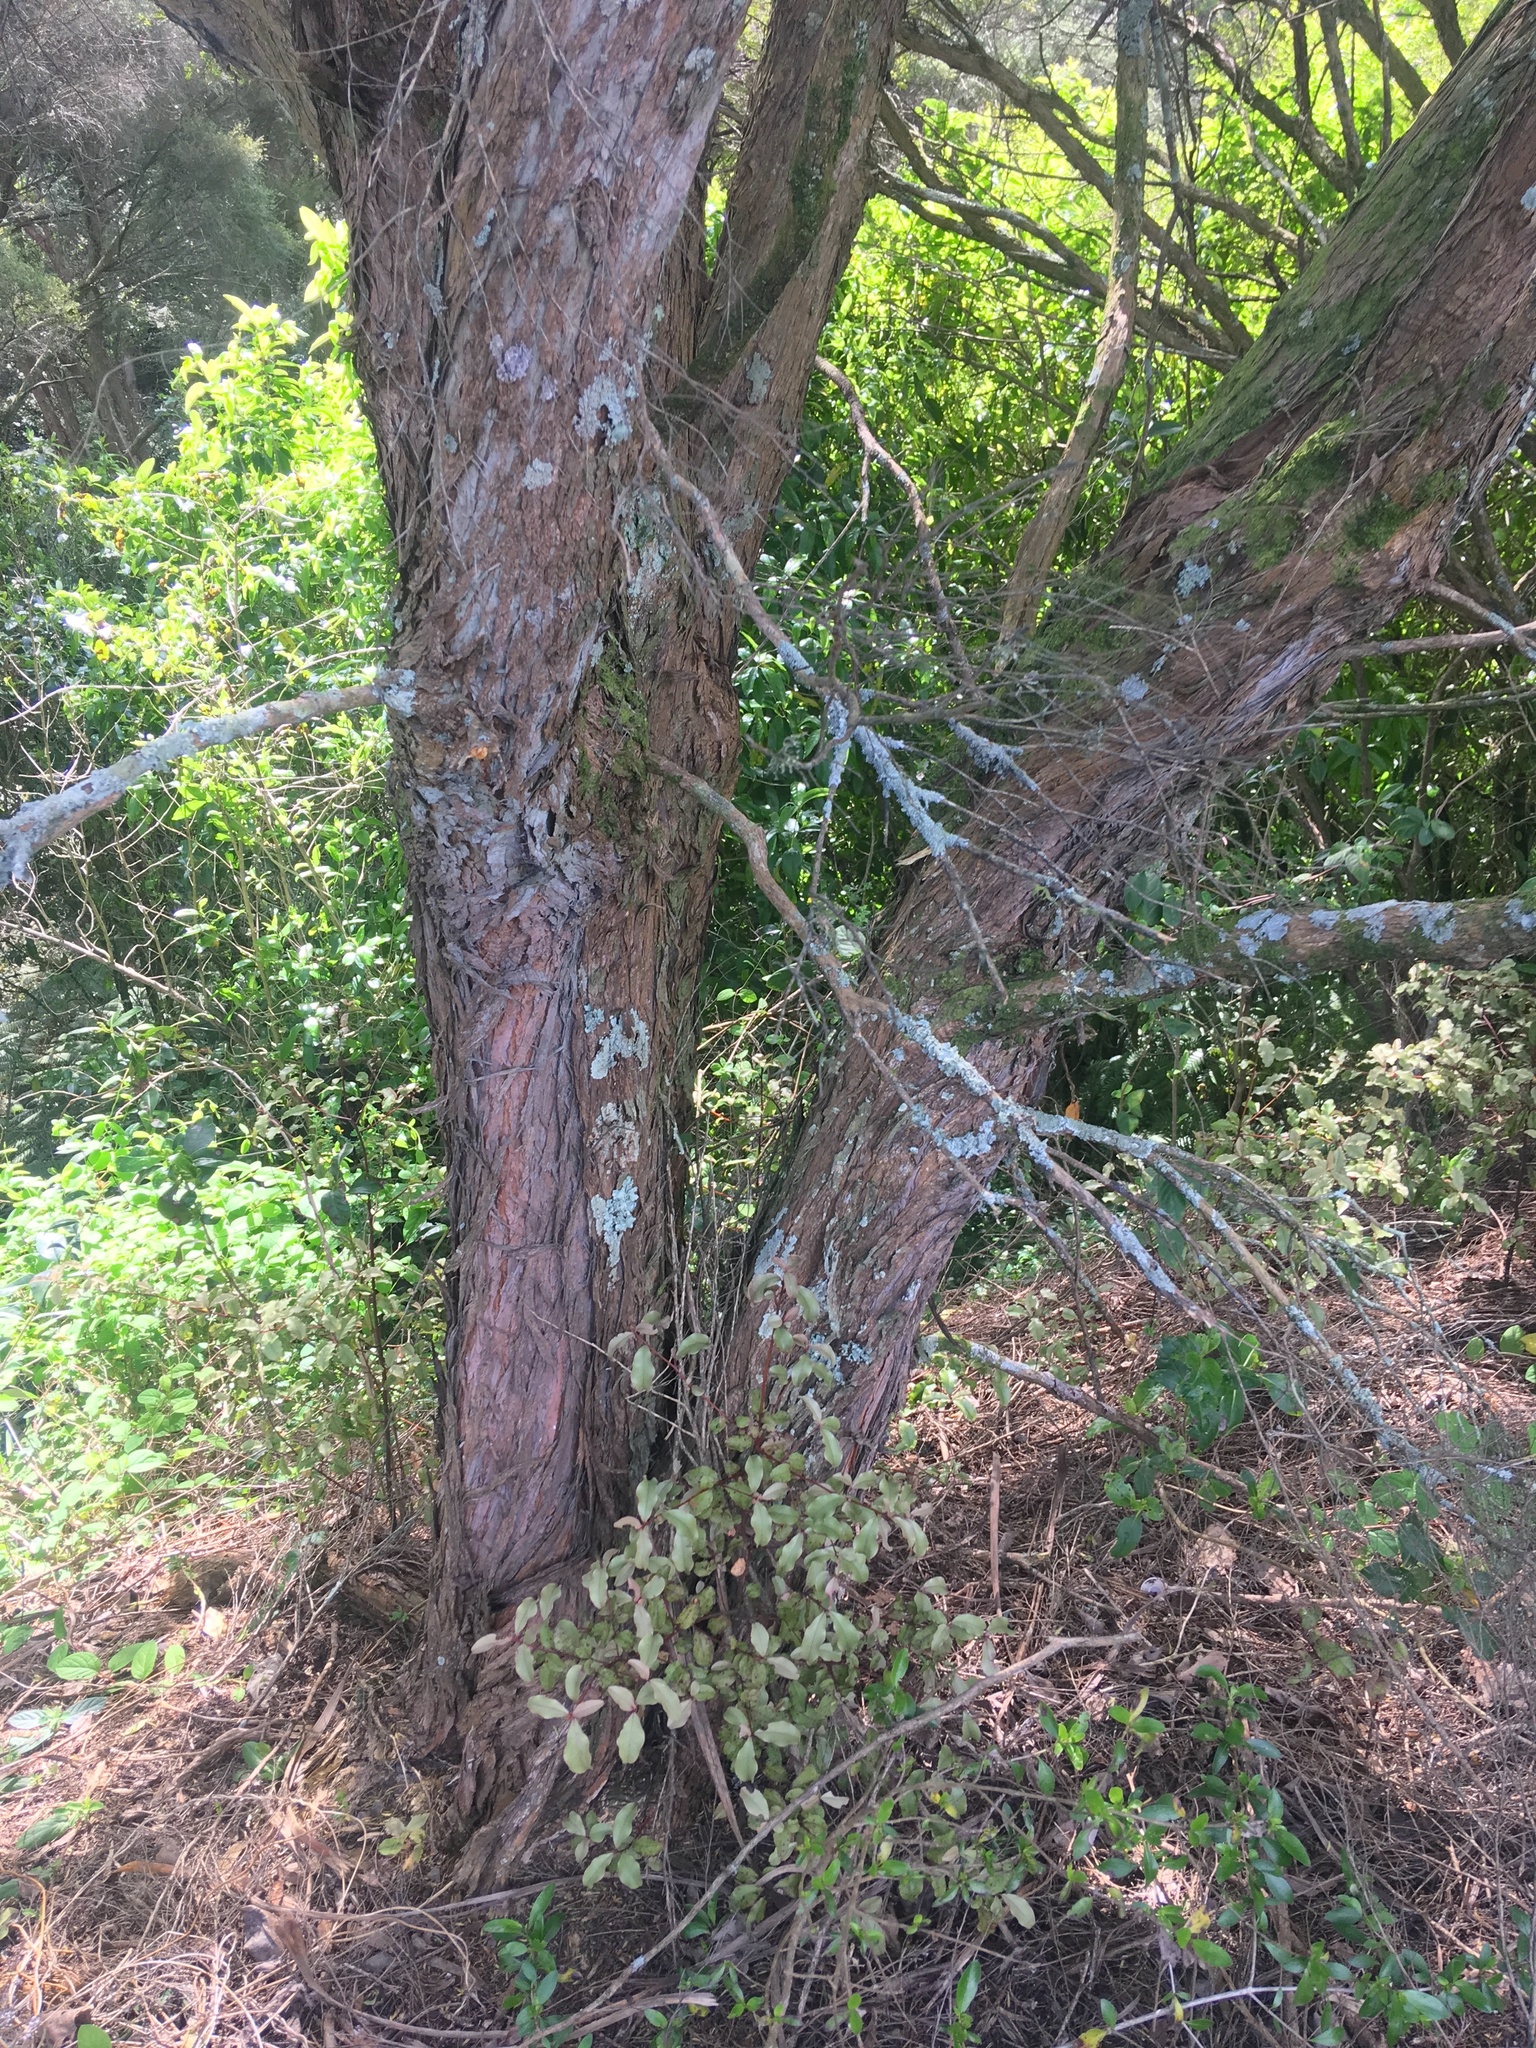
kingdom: Plantae
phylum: Tracheophyta
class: Magnoliopsida
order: Ericales
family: Primulaceae
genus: Myrsine
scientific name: Myrsine australis
